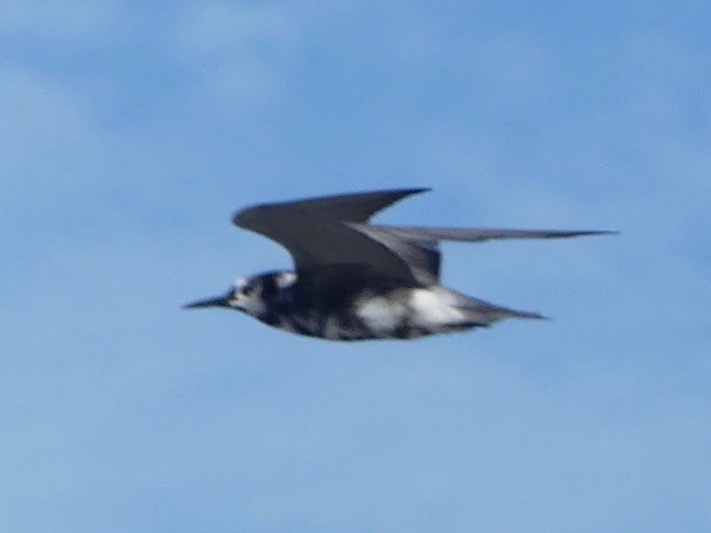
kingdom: Animalia
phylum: Chordata
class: Aves
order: Charadriiformes
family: Laridae
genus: Chlidonias
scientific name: Chlidonias niger
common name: Black tern
